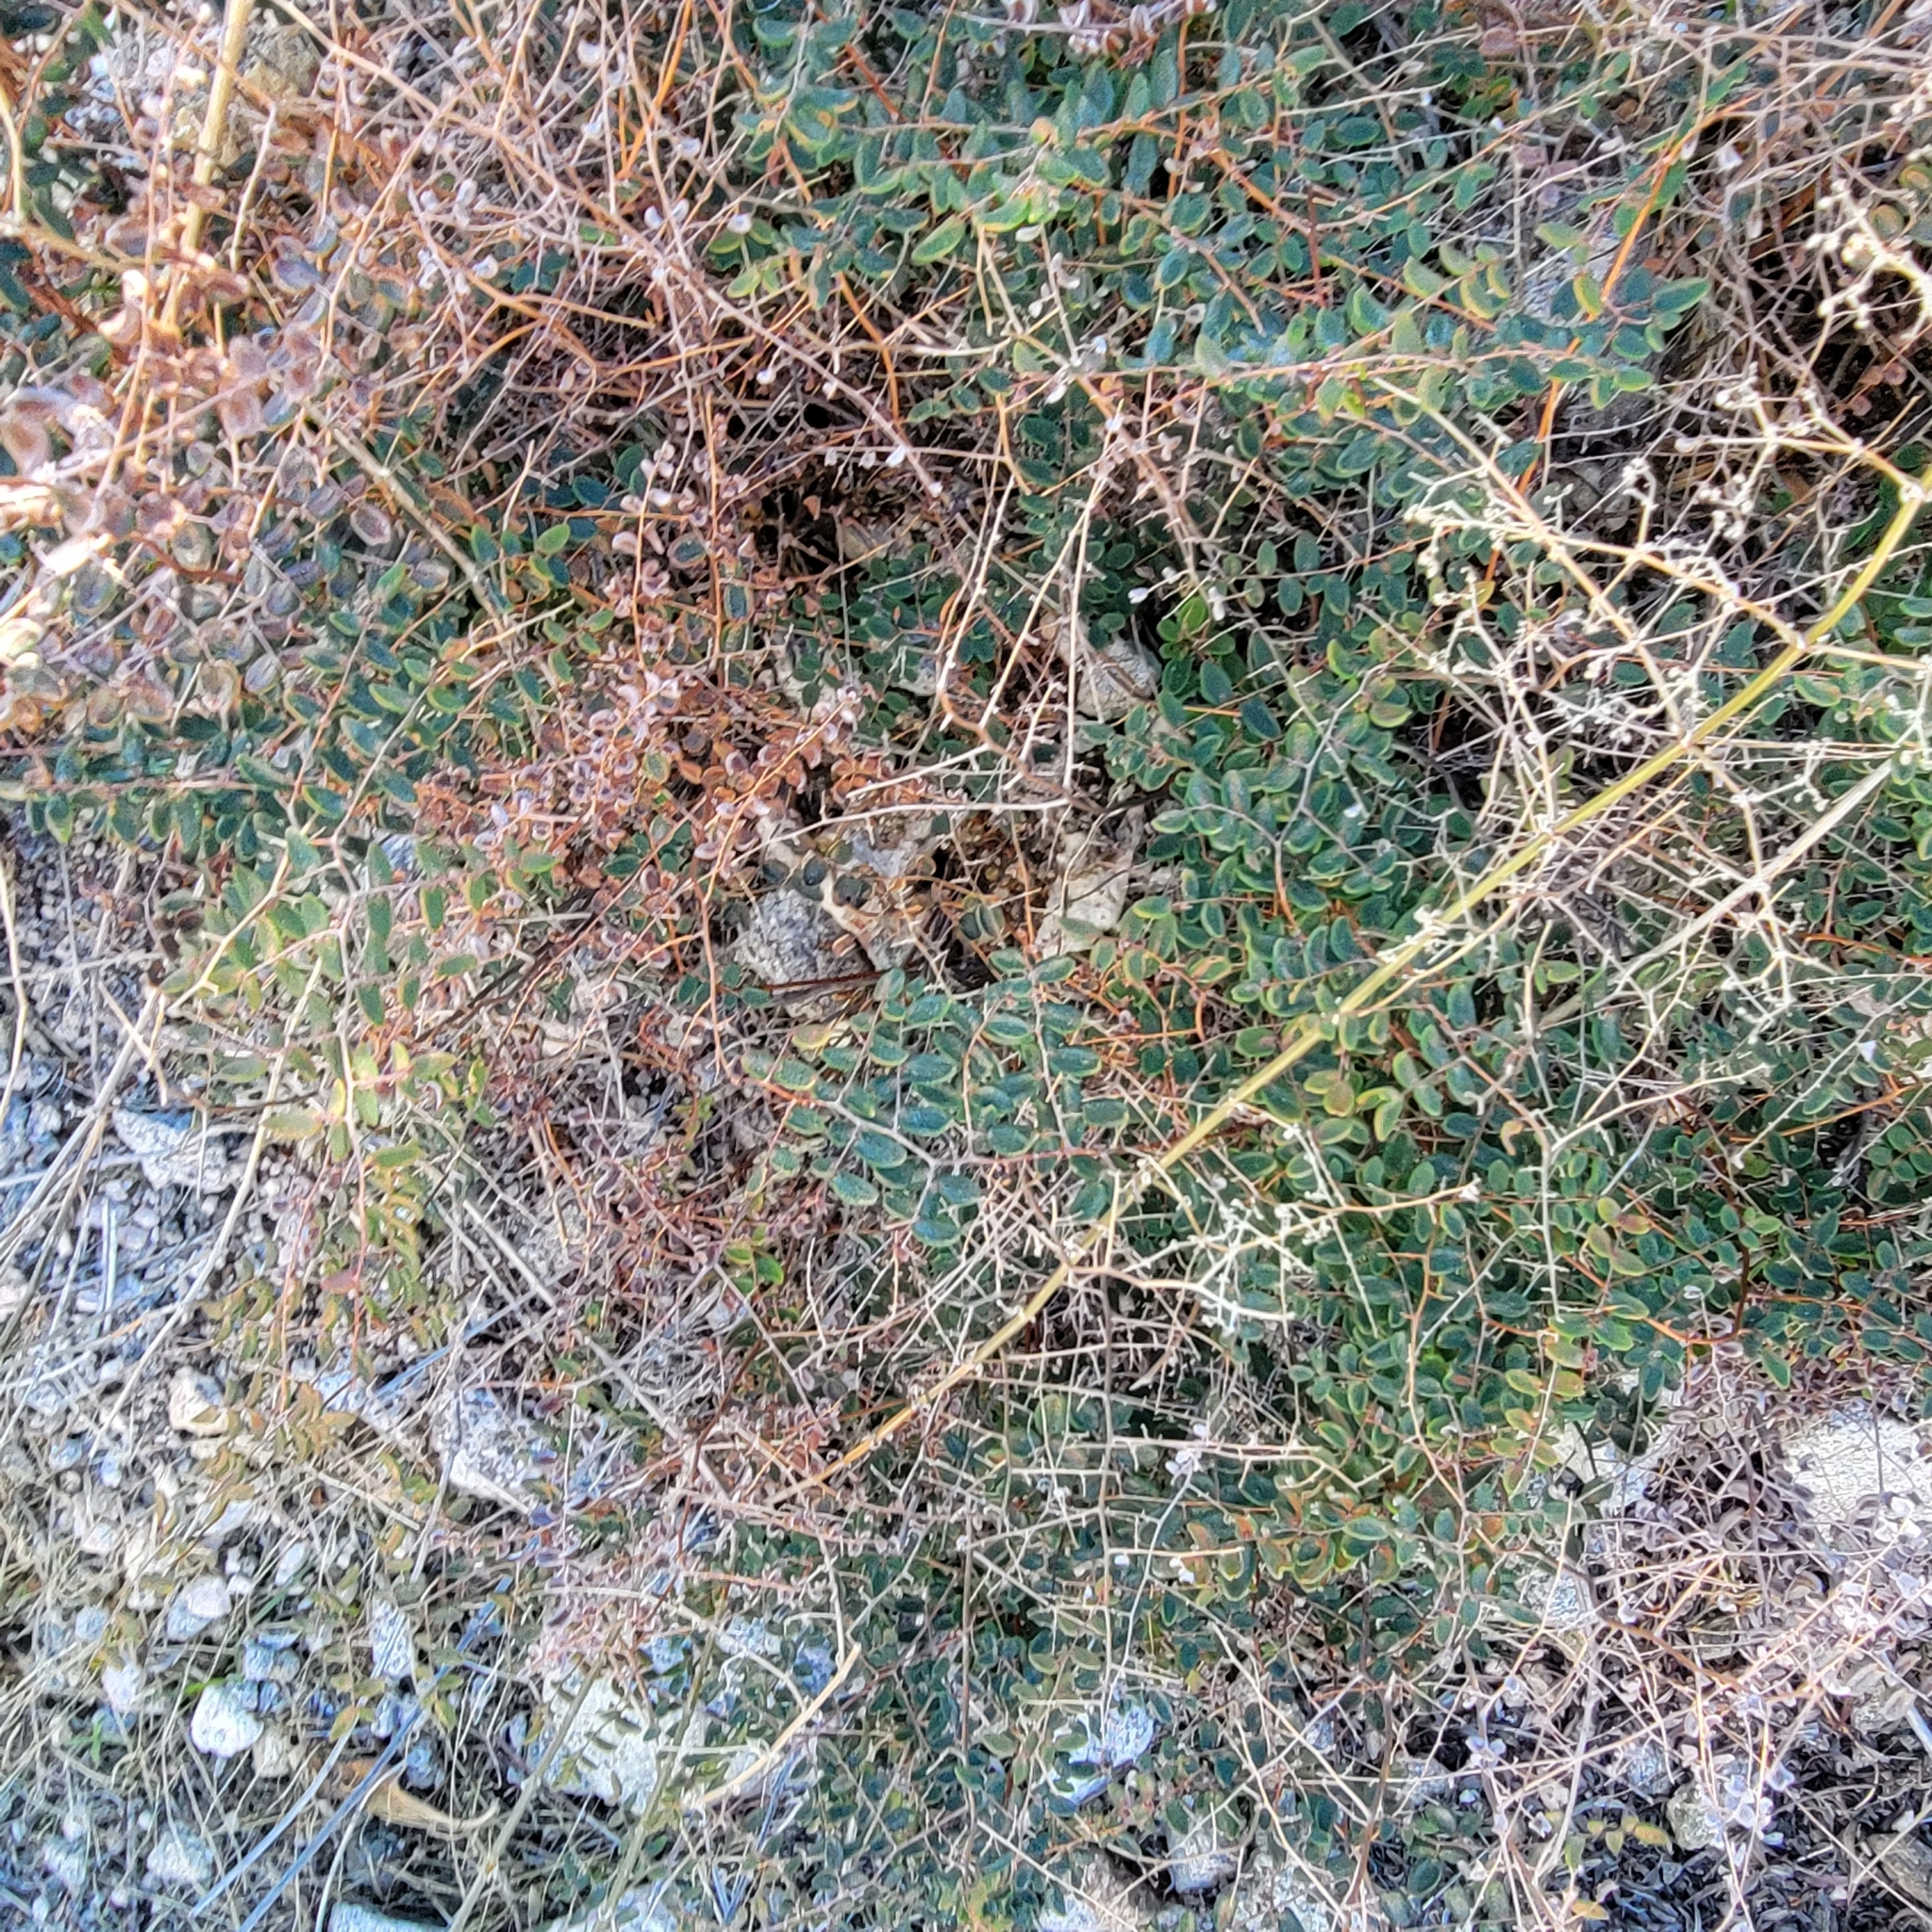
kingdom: Plantae
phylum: Tracheophyta
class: Polypodiopsida
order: Polypodiales
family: Pteridaceae
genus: Pellaea
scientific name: Pellaea andromedifolia
